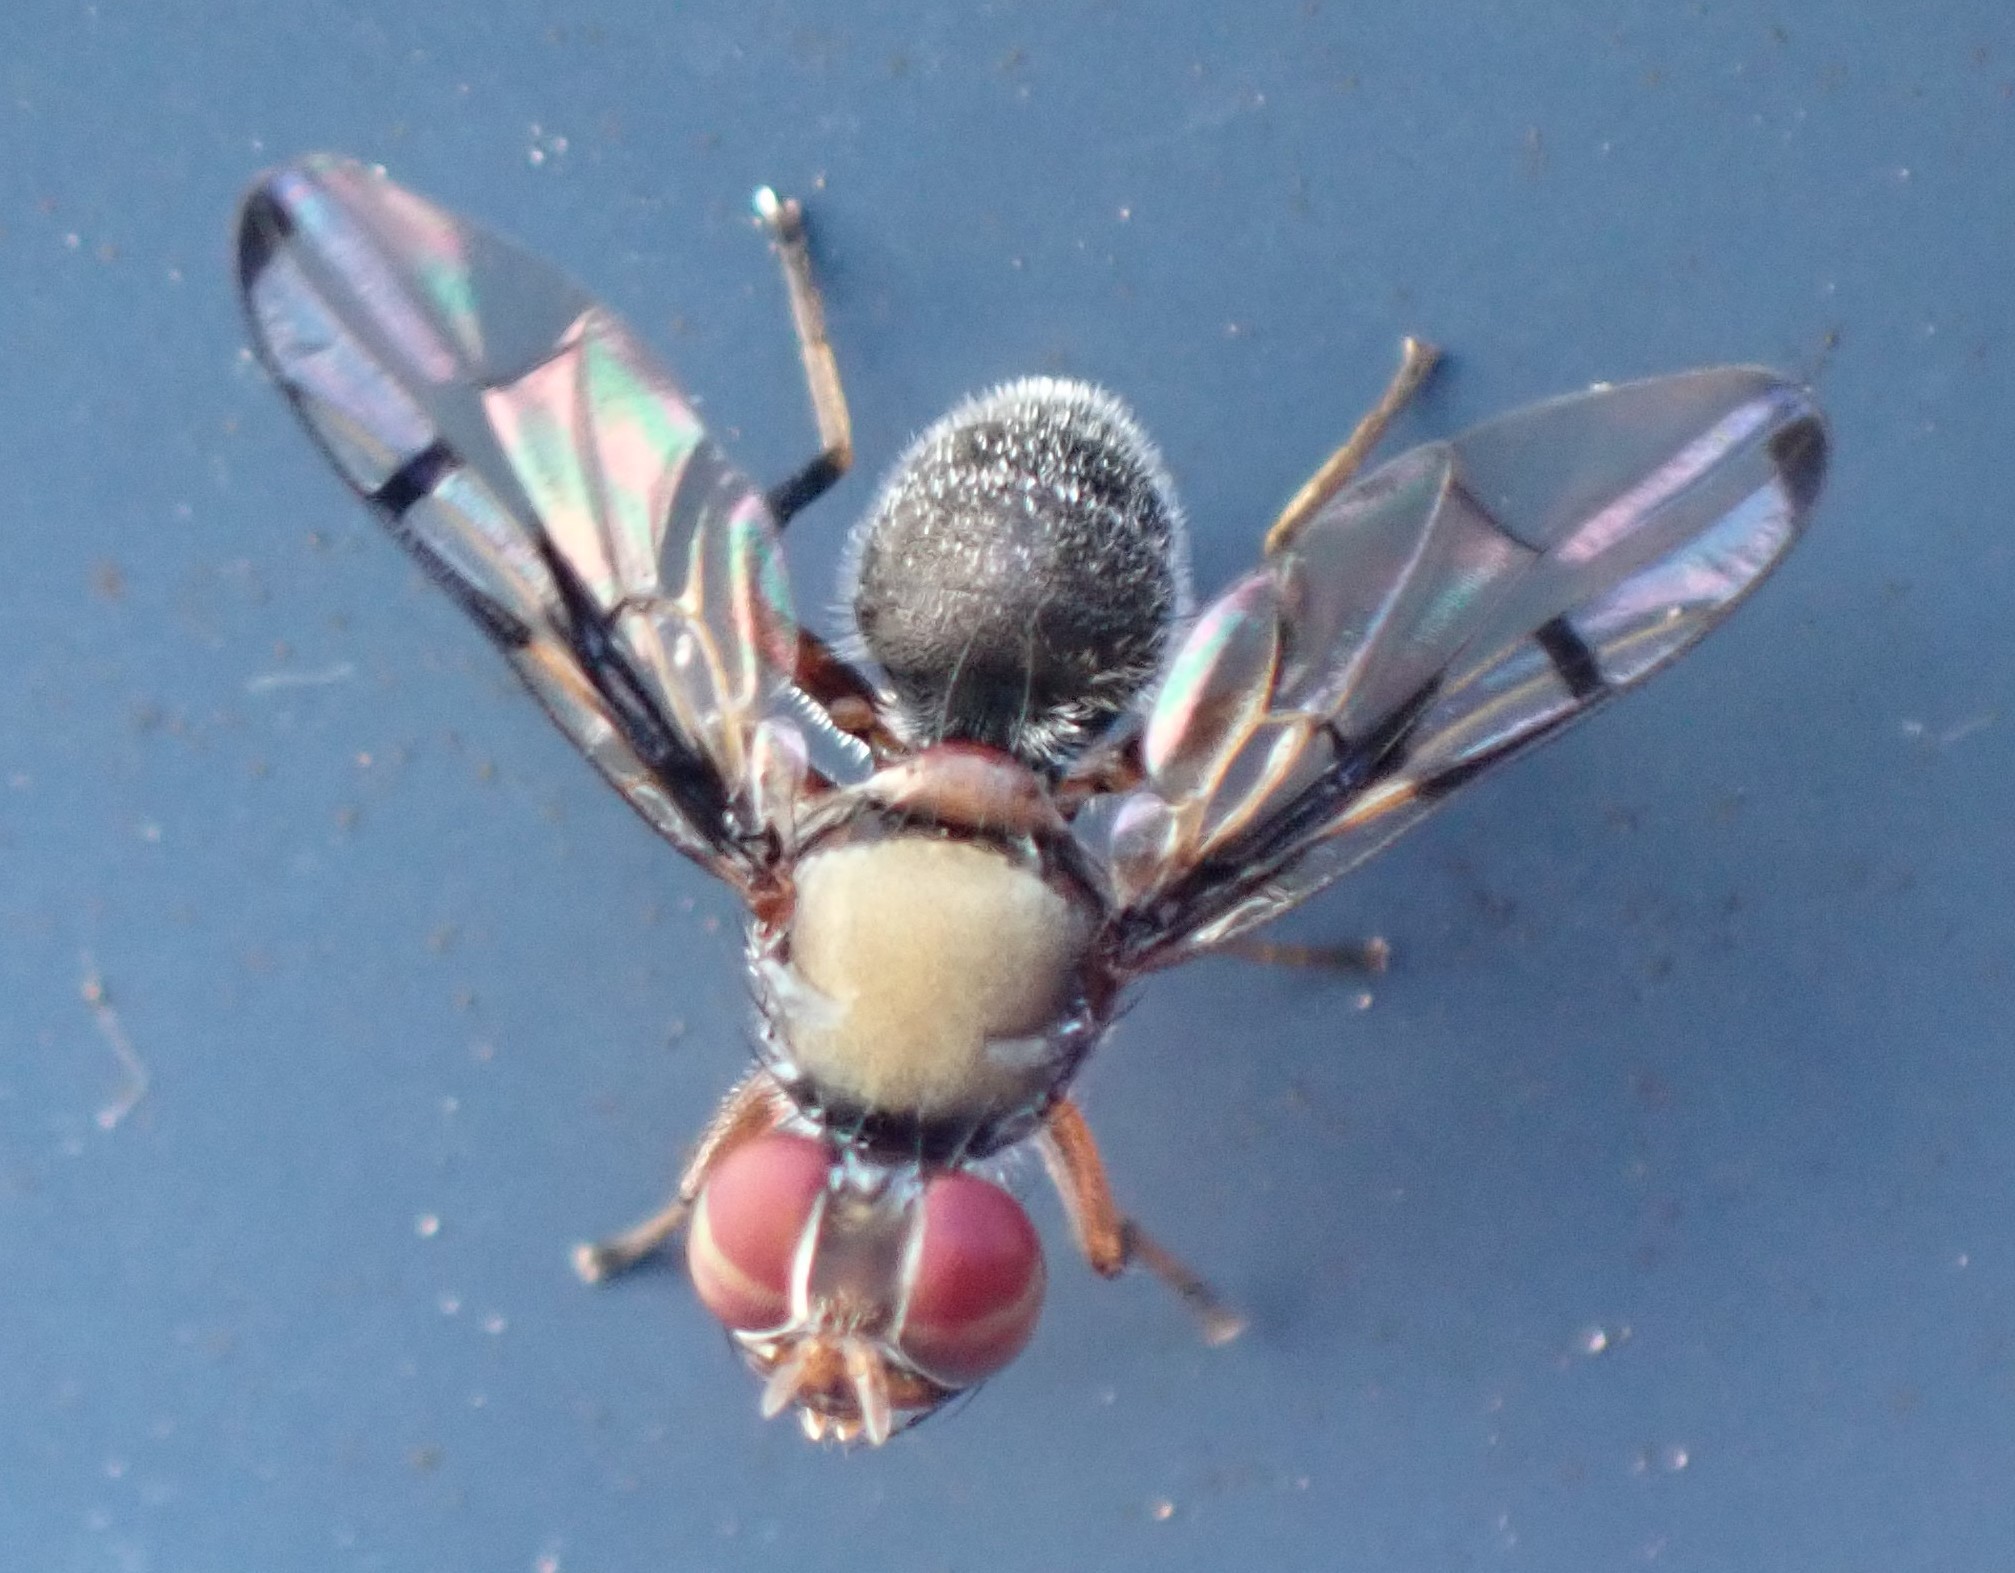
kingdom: Animalia
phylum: Arthropoda
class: Insecta
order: Diptera
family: Platystomatidae
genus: Pogonortalis
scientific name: Pogonortalis doclea
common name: Boatman fly
